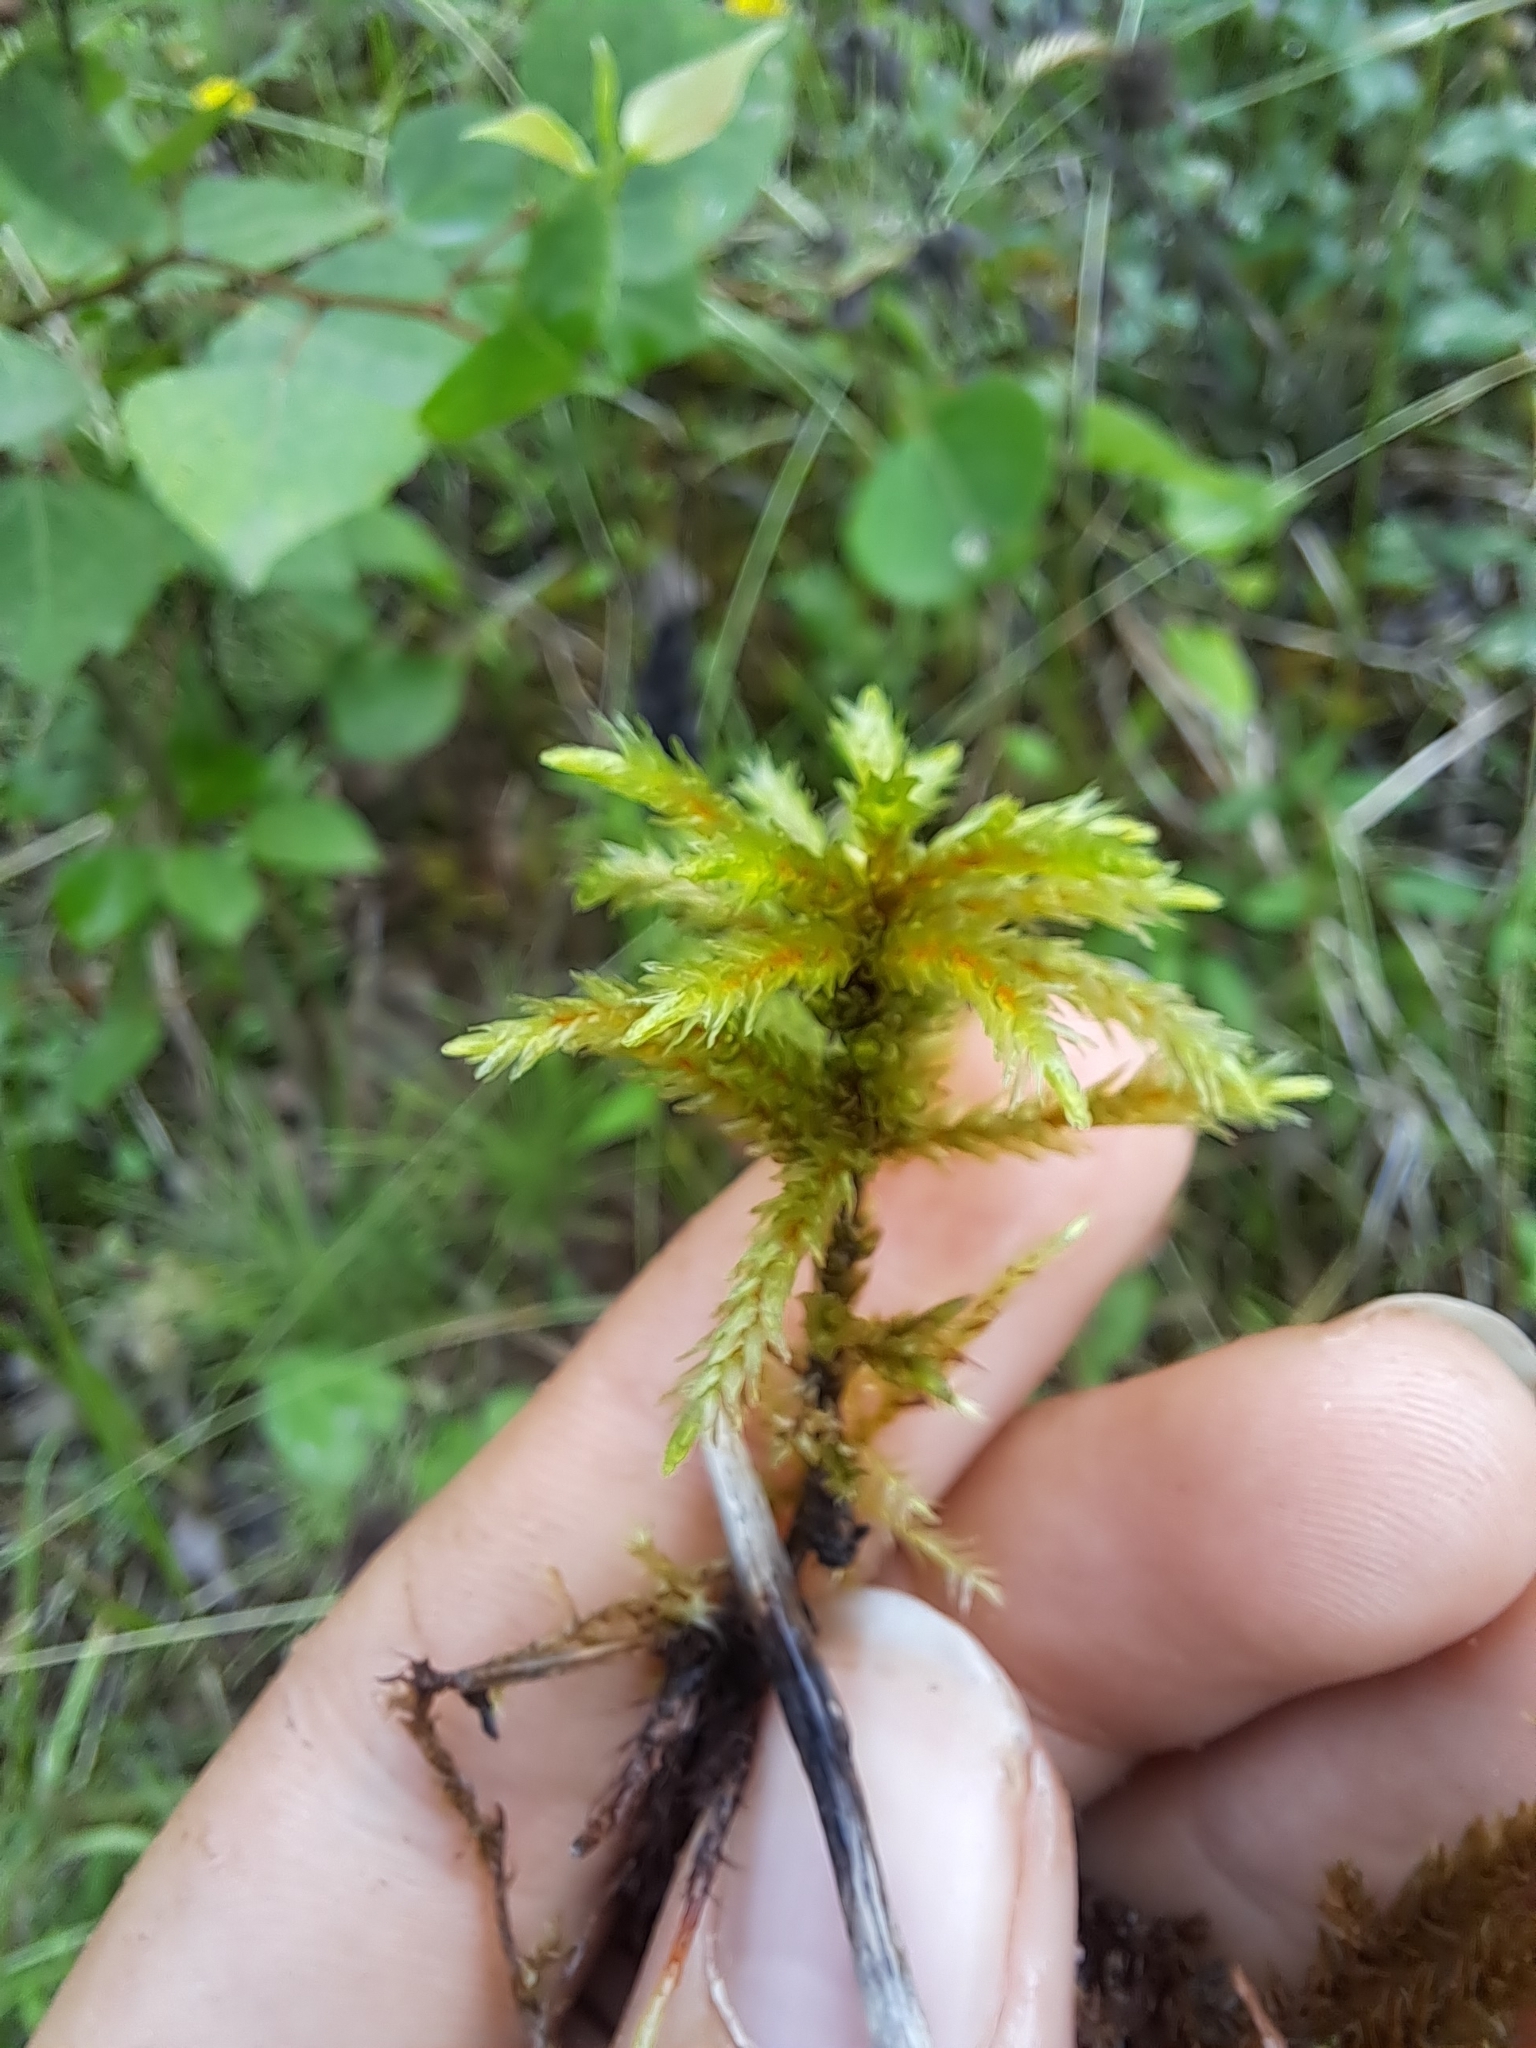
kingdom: Plantae
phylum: Bryophyta
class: Bryopsida
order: Hypnales
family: Climaciaceae
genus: Climacium
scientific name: Climacium dendroides
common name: Northern tree moss
